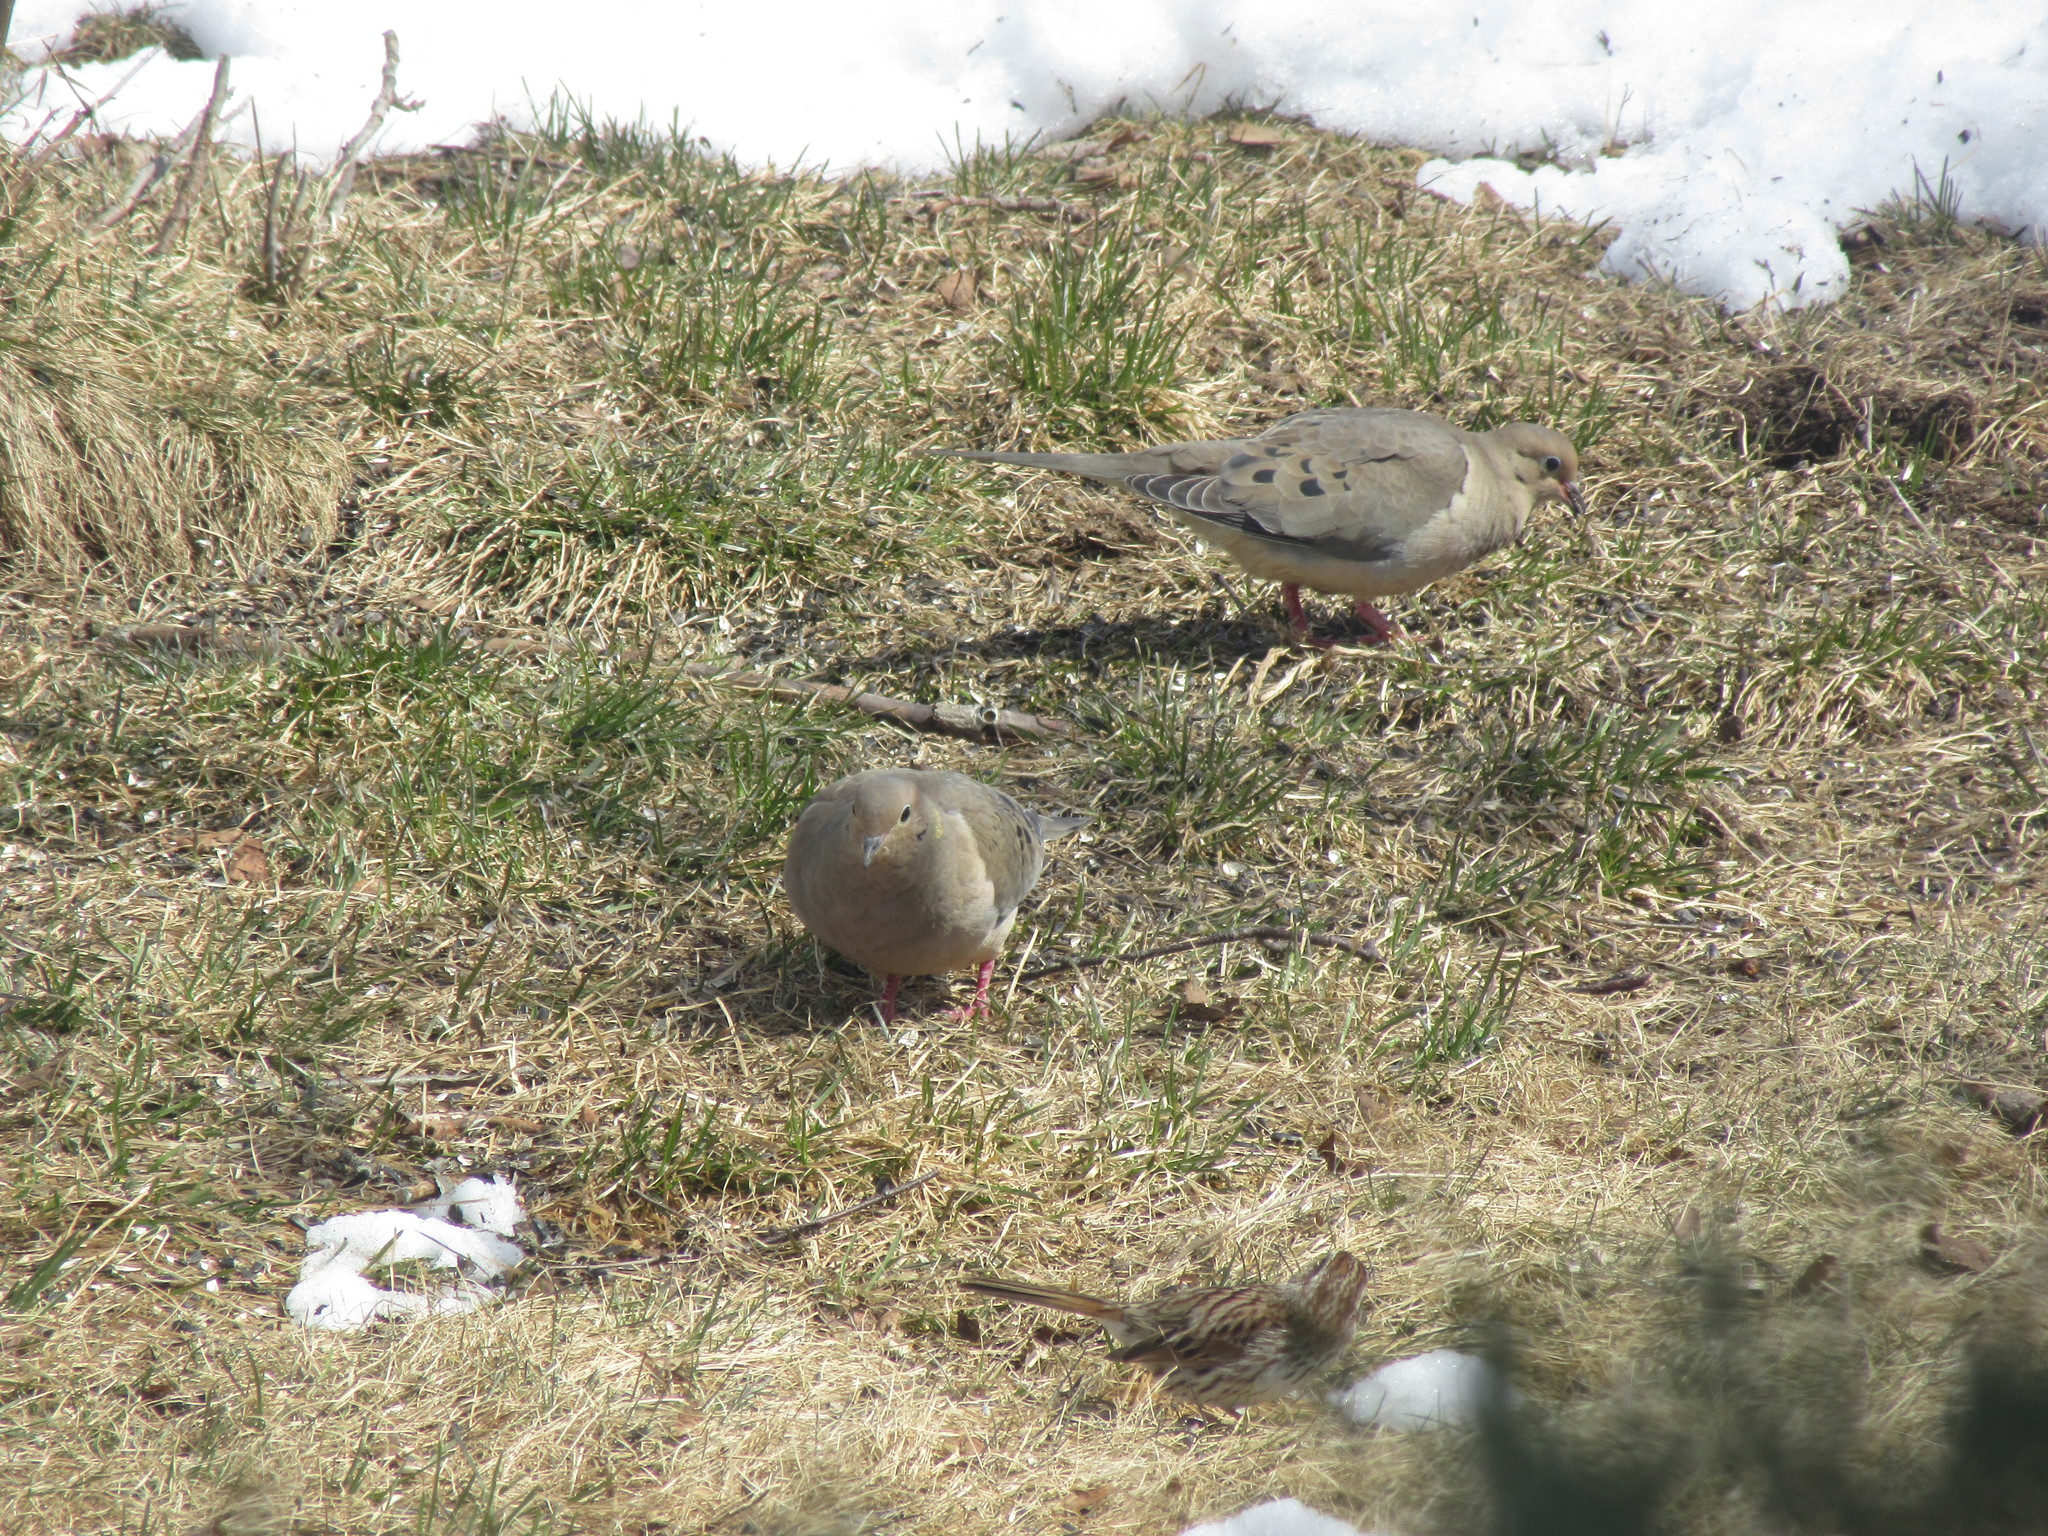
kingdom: Animalia
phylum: Chordata
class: Aves
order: Columbiformes
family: Columbidae
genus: Zenaida
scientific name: Zenaida macroura
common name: Mourning dove
